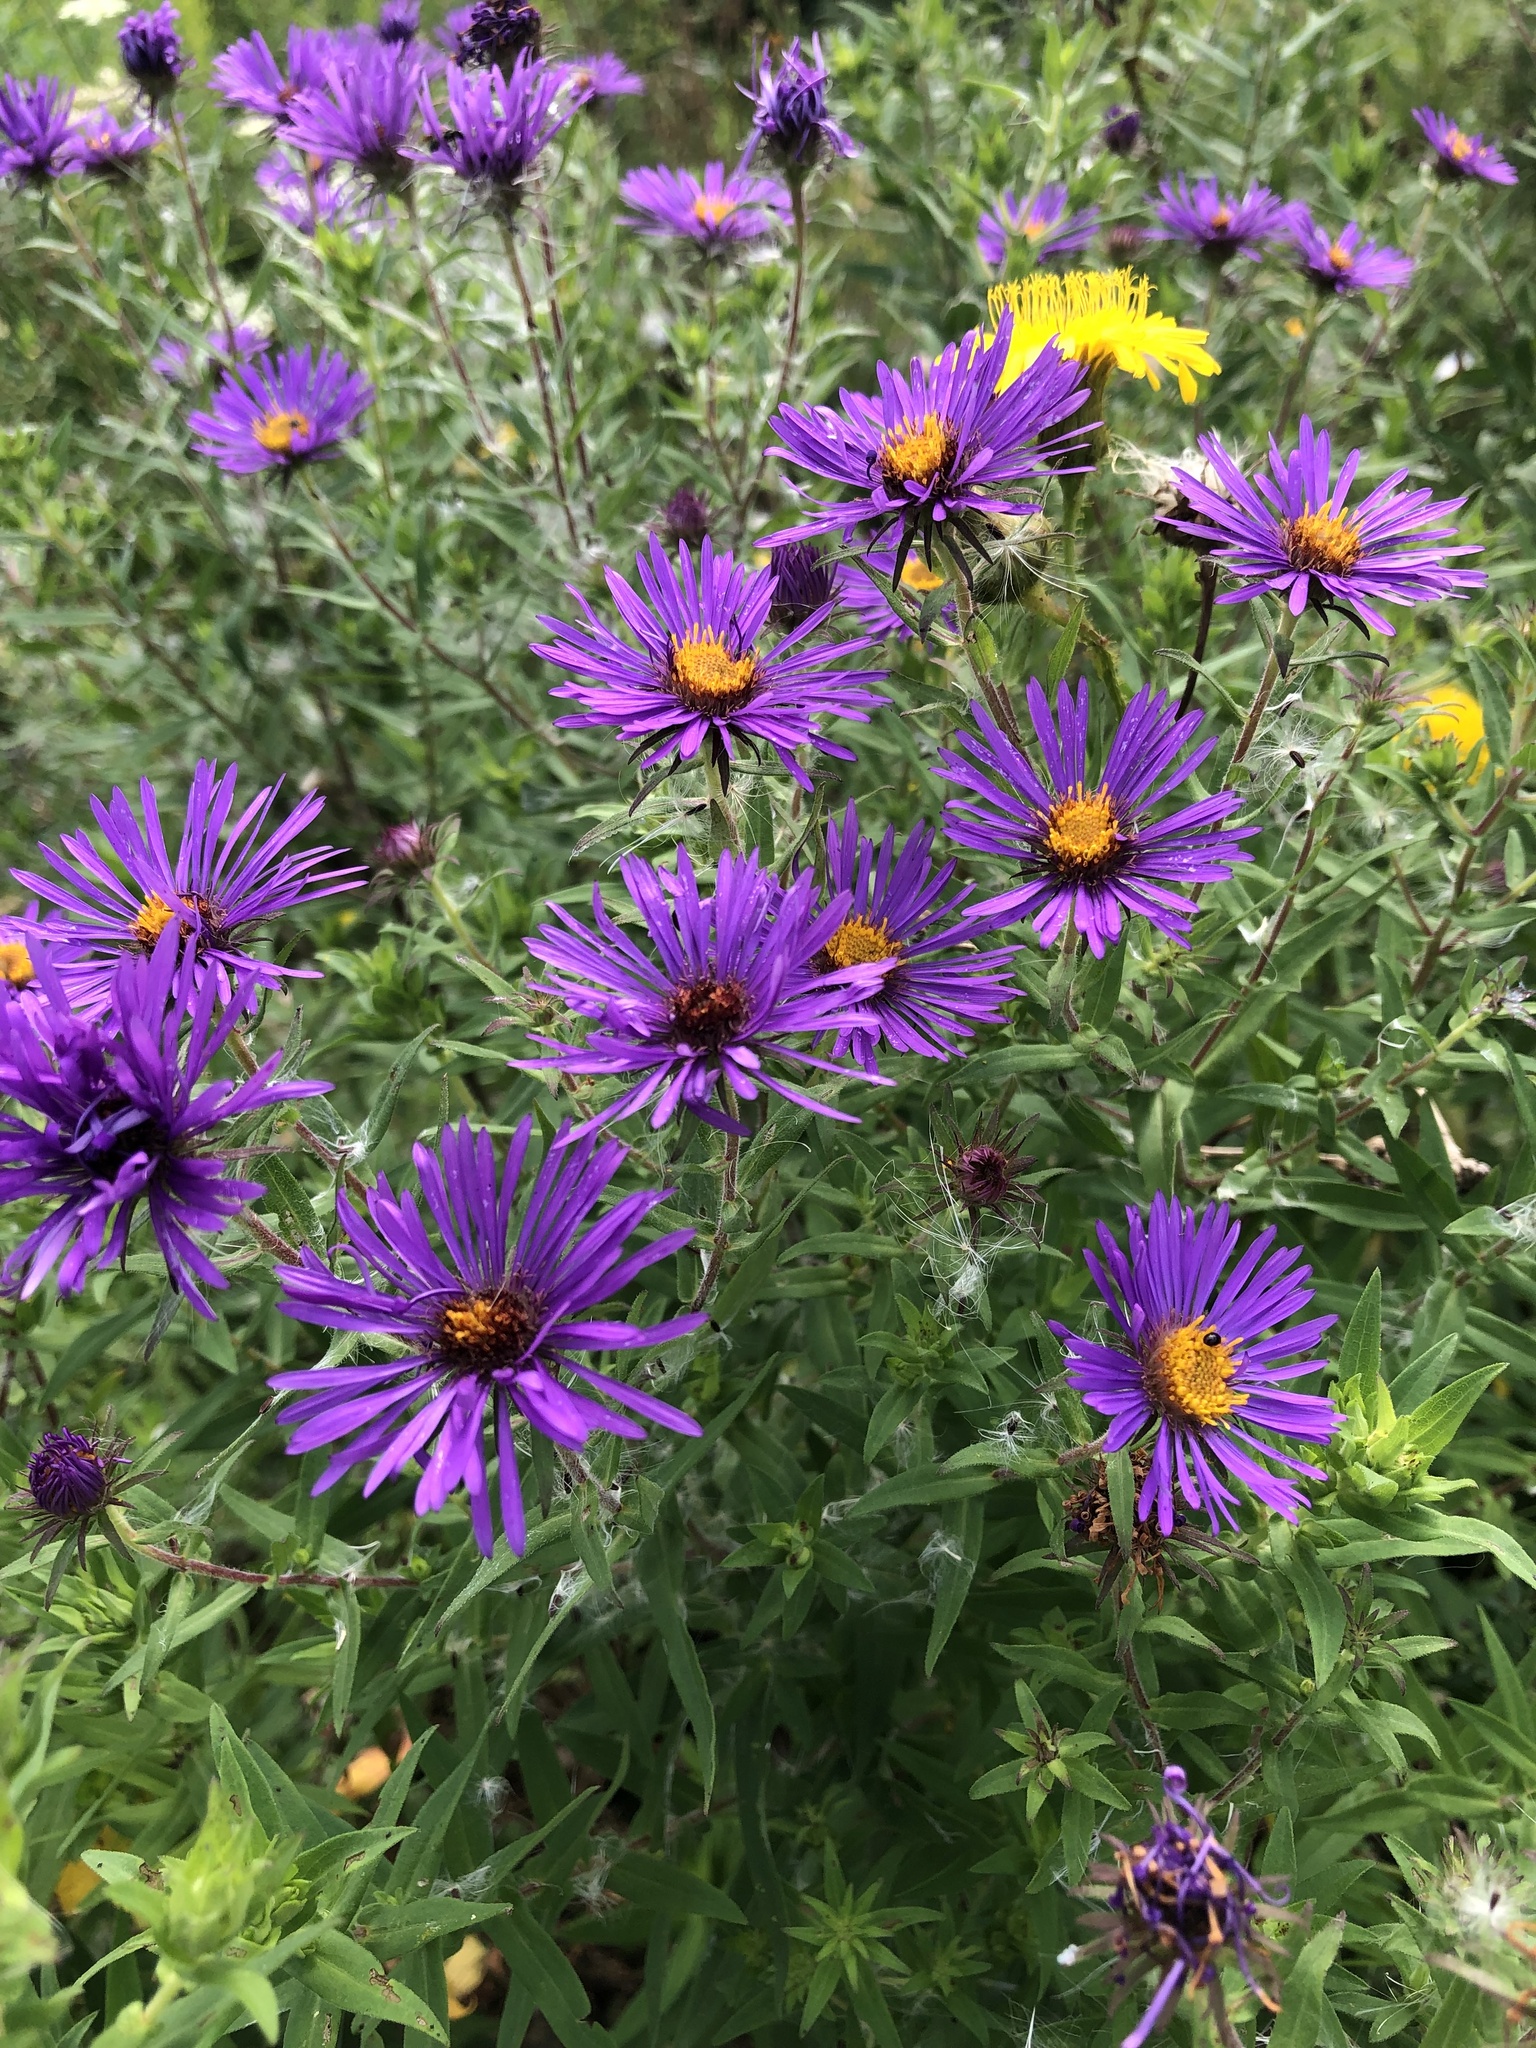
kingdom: Plantae
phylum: Tracheophyta
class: Magnoliopsida
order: Asterales
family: Asteraceae
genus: Symphyotrichum
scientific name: Symphyotrichum novae-angliae
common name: Michaelmas daisy
